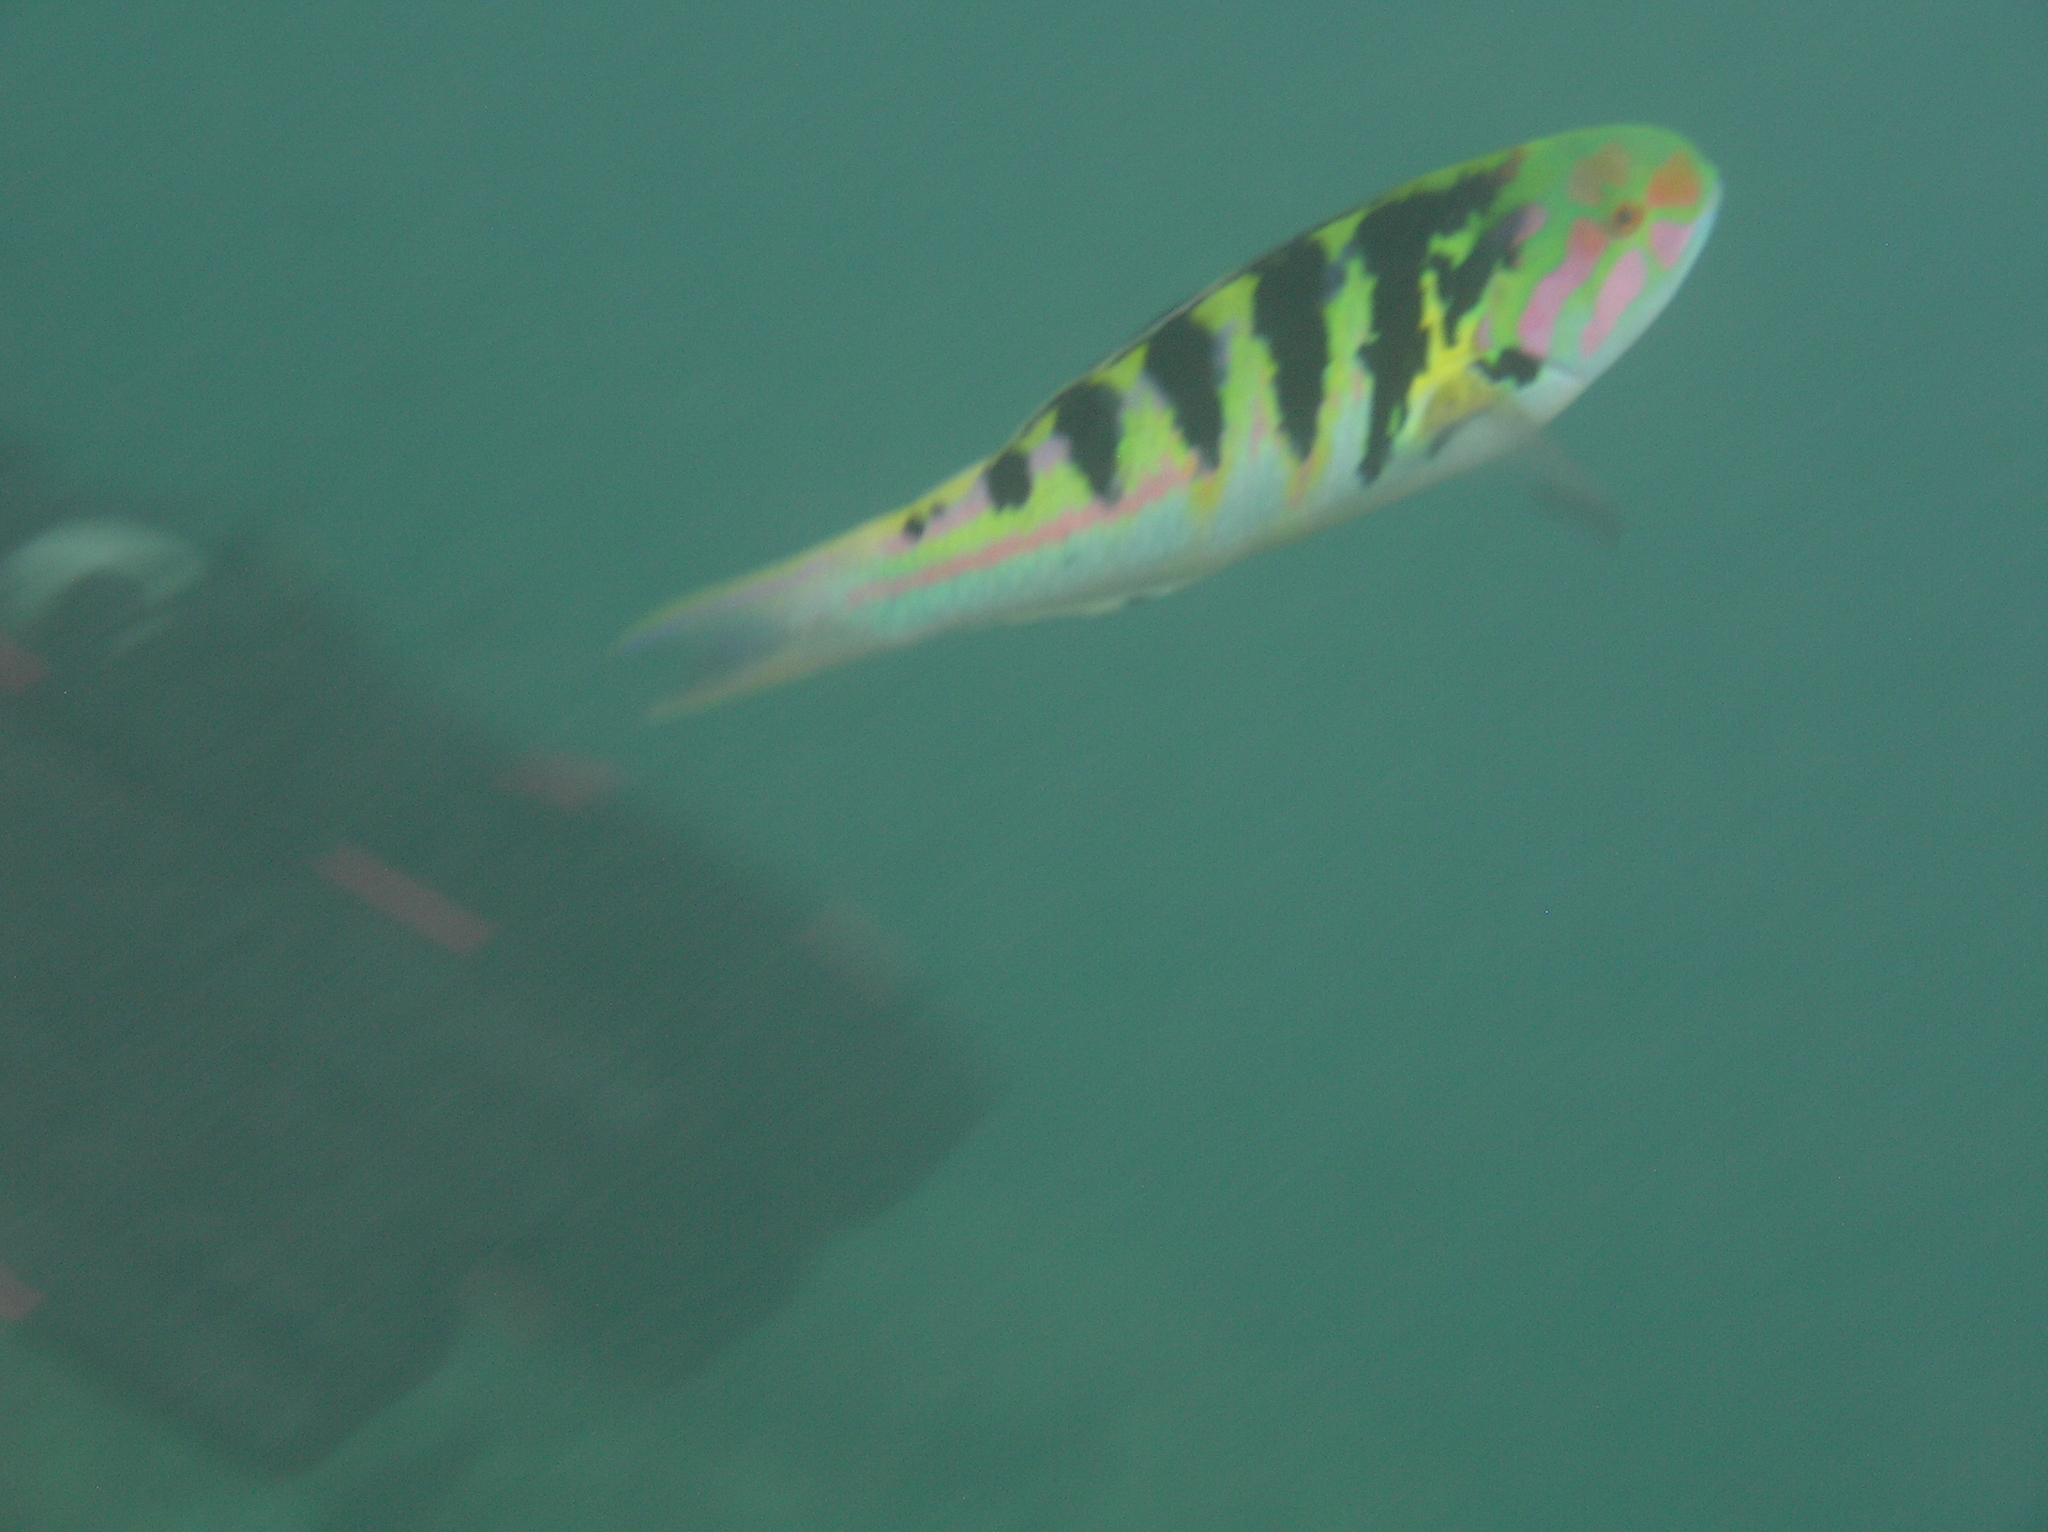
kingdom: Animalia
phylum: Chordata
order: Perciformes
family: Labridae
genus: Thalassoma
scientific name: Thalassoma hardwicke
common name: Sixbar wrasse
